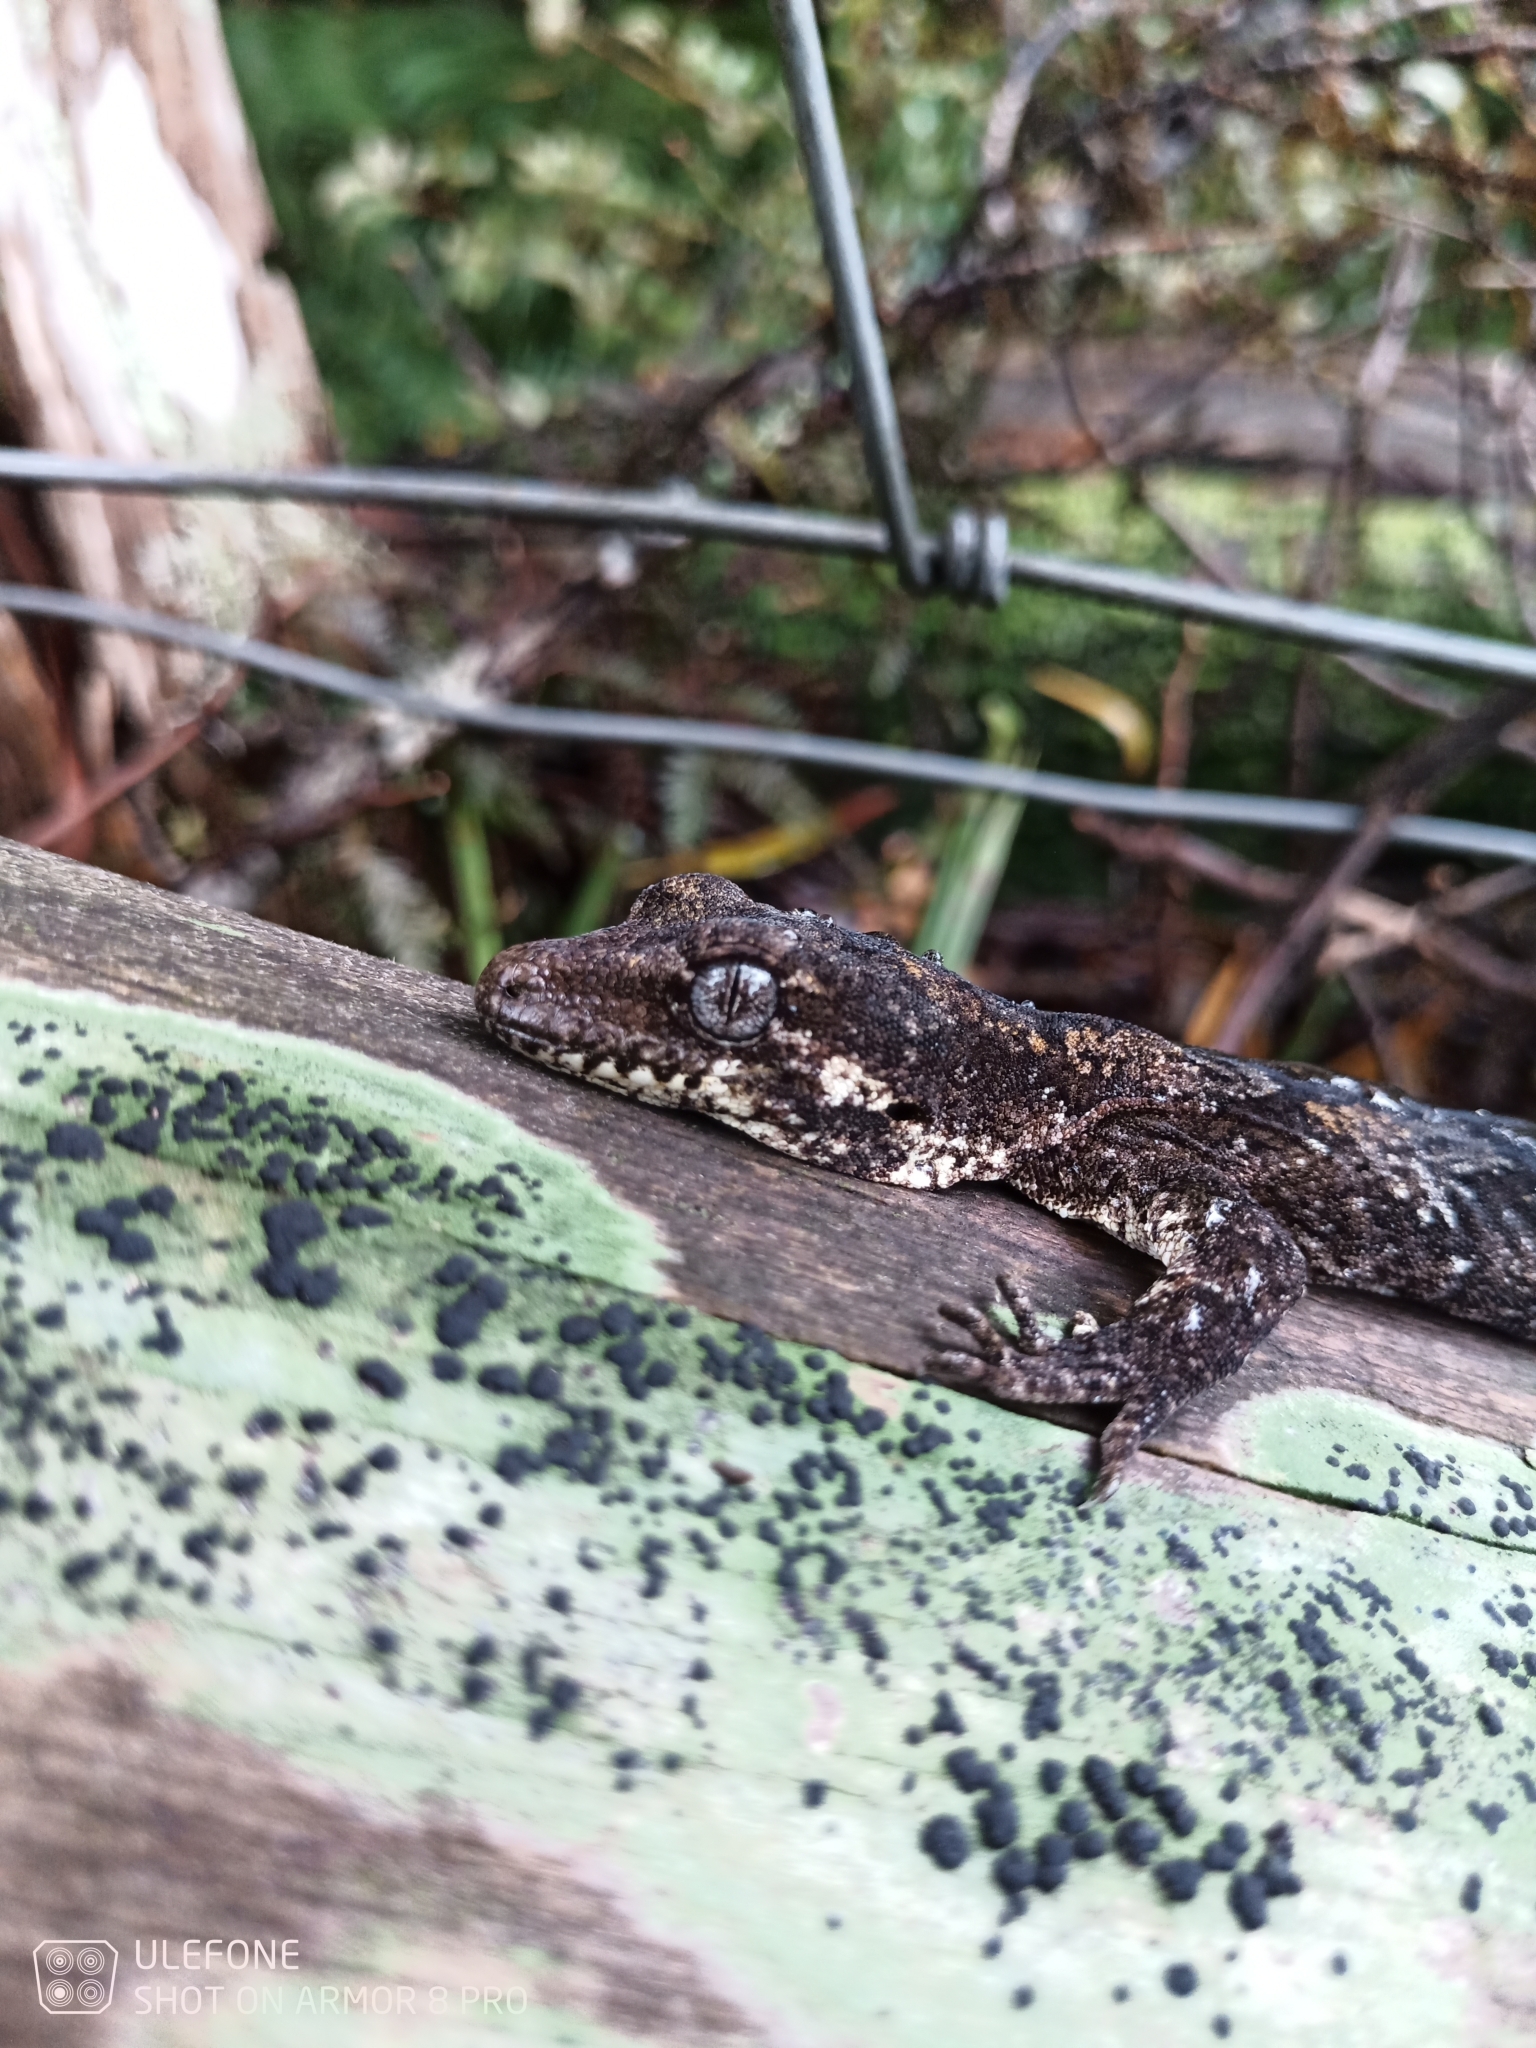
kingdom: Animalia
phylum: Chordata
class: Squamata
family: Diplodactylidae
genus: Mokopirirakau
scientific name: Mokopirirakau granulatus
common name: Forest gecko
